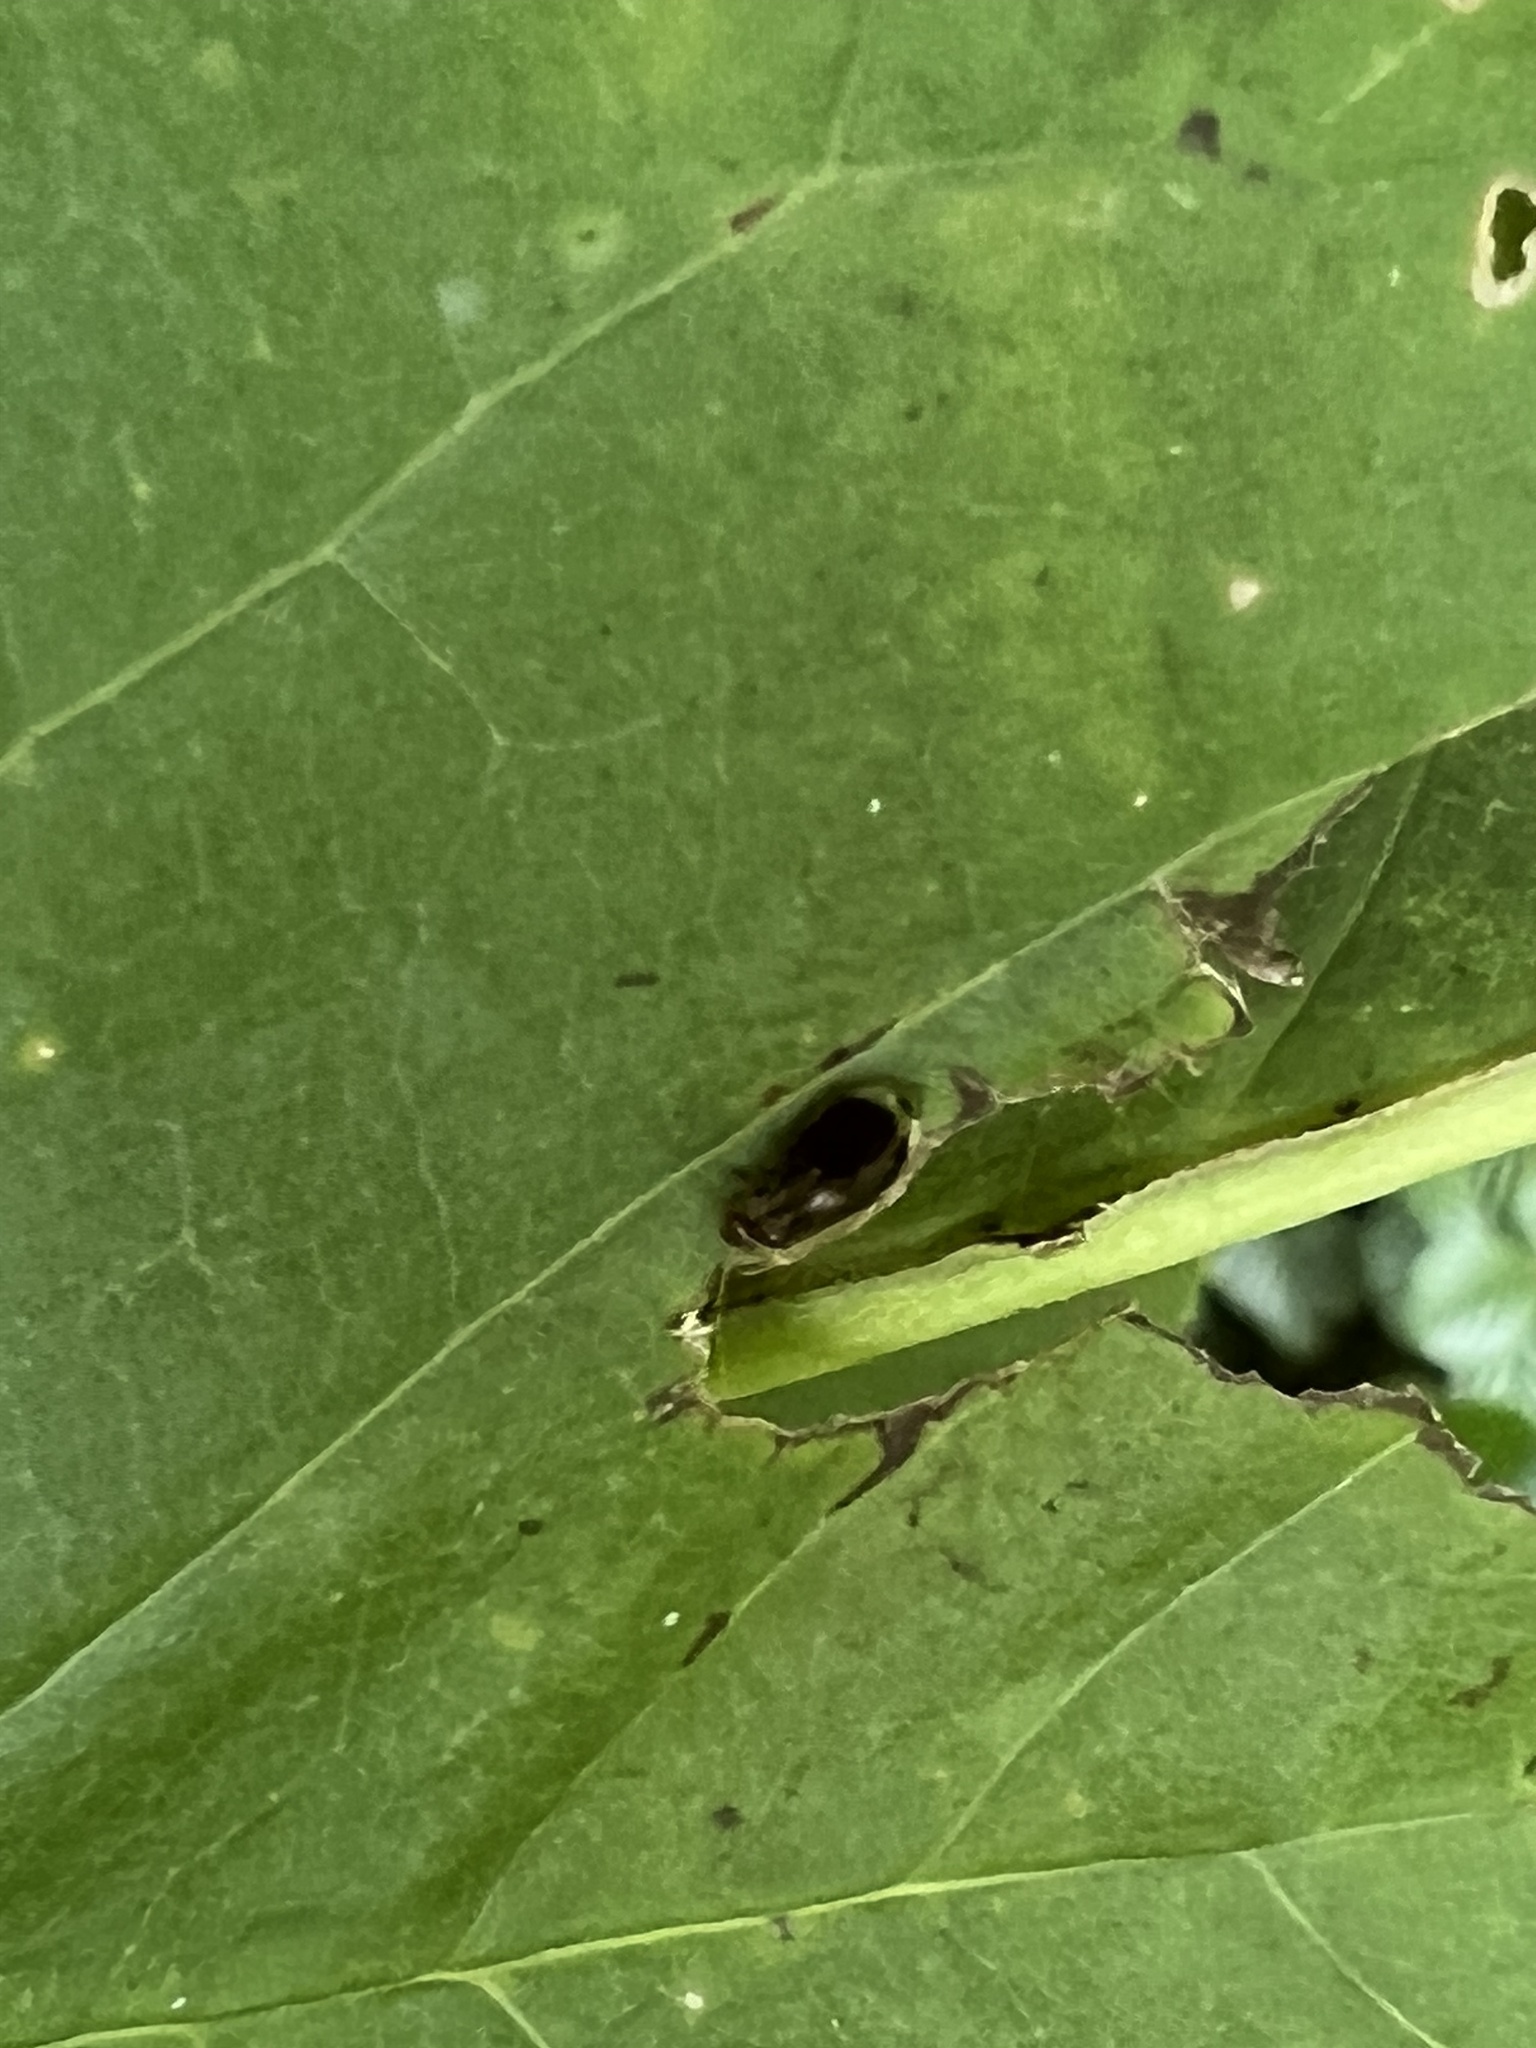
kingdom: Animalia
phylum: Arthropoda
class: Insecta
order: Psocodea
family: Amphipsocidae
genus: Polypsocus
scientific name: Polypsocus corruptus
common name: Corrupt barklouse
